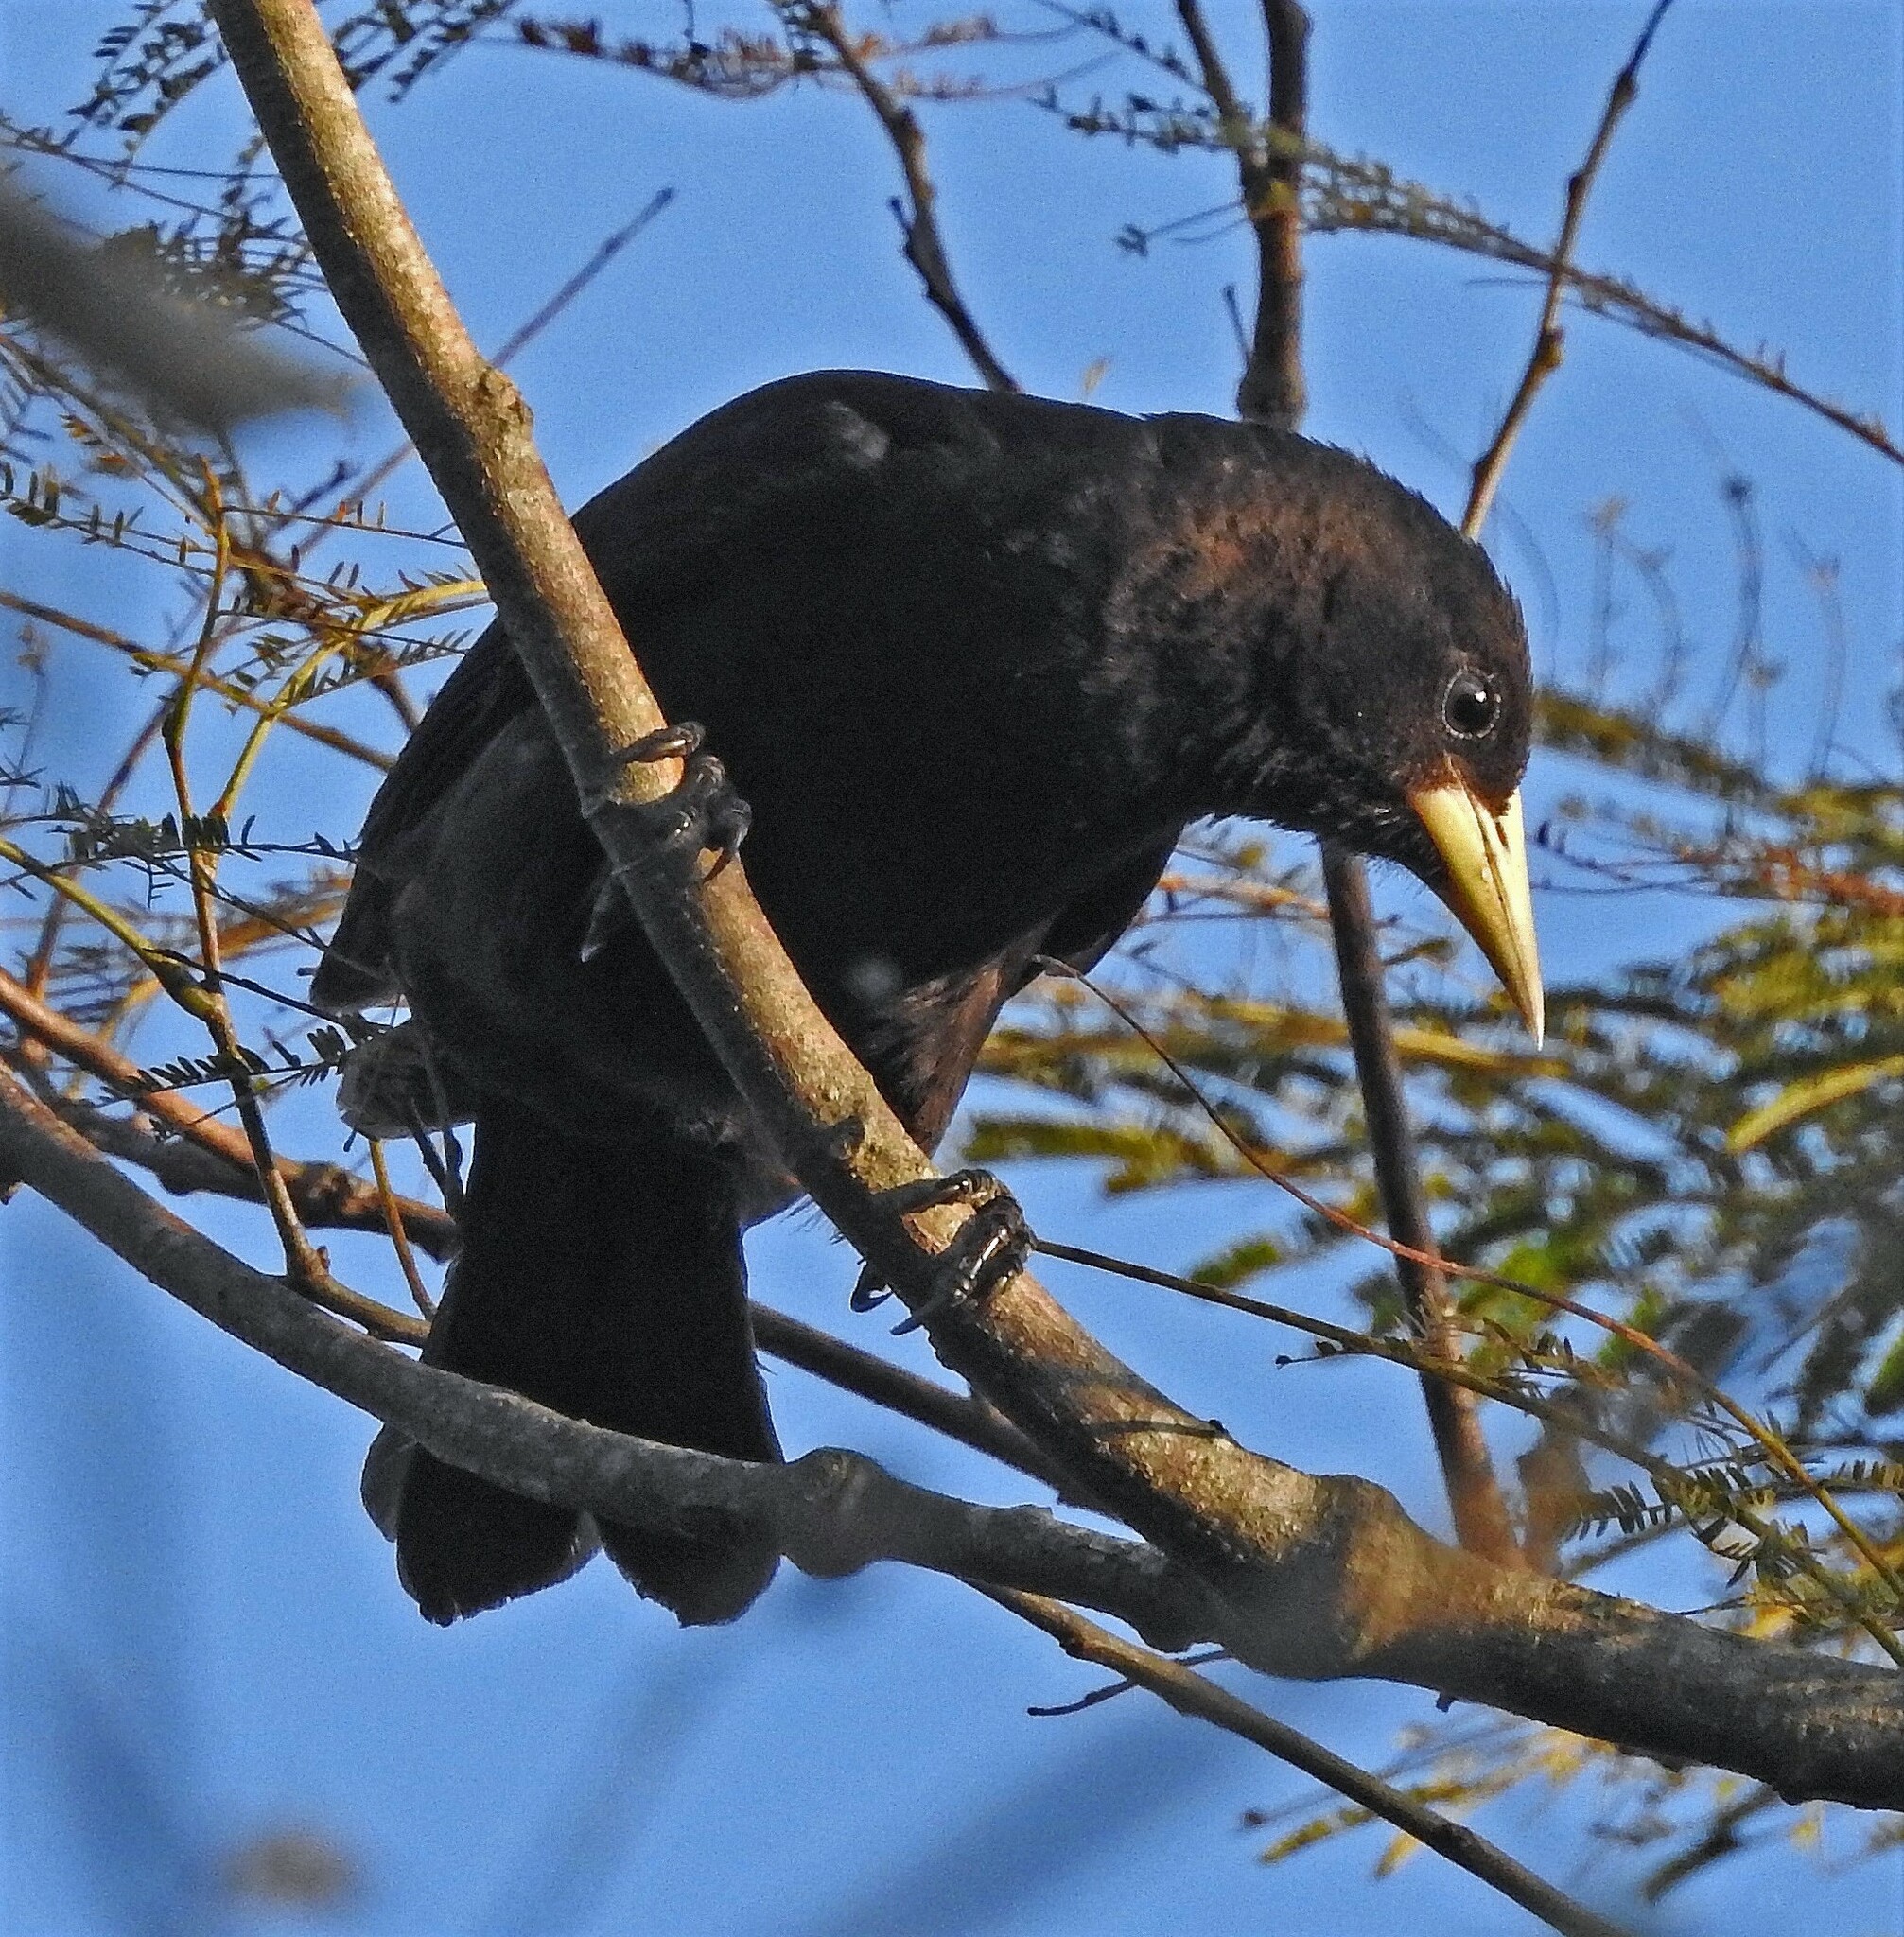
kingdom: Animalia
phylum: Chordata
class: Aves
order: Passeriformes
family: Icteridae
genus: Cacicus
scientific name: Cacicus haemorrhous
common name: Red-rumped cacique
